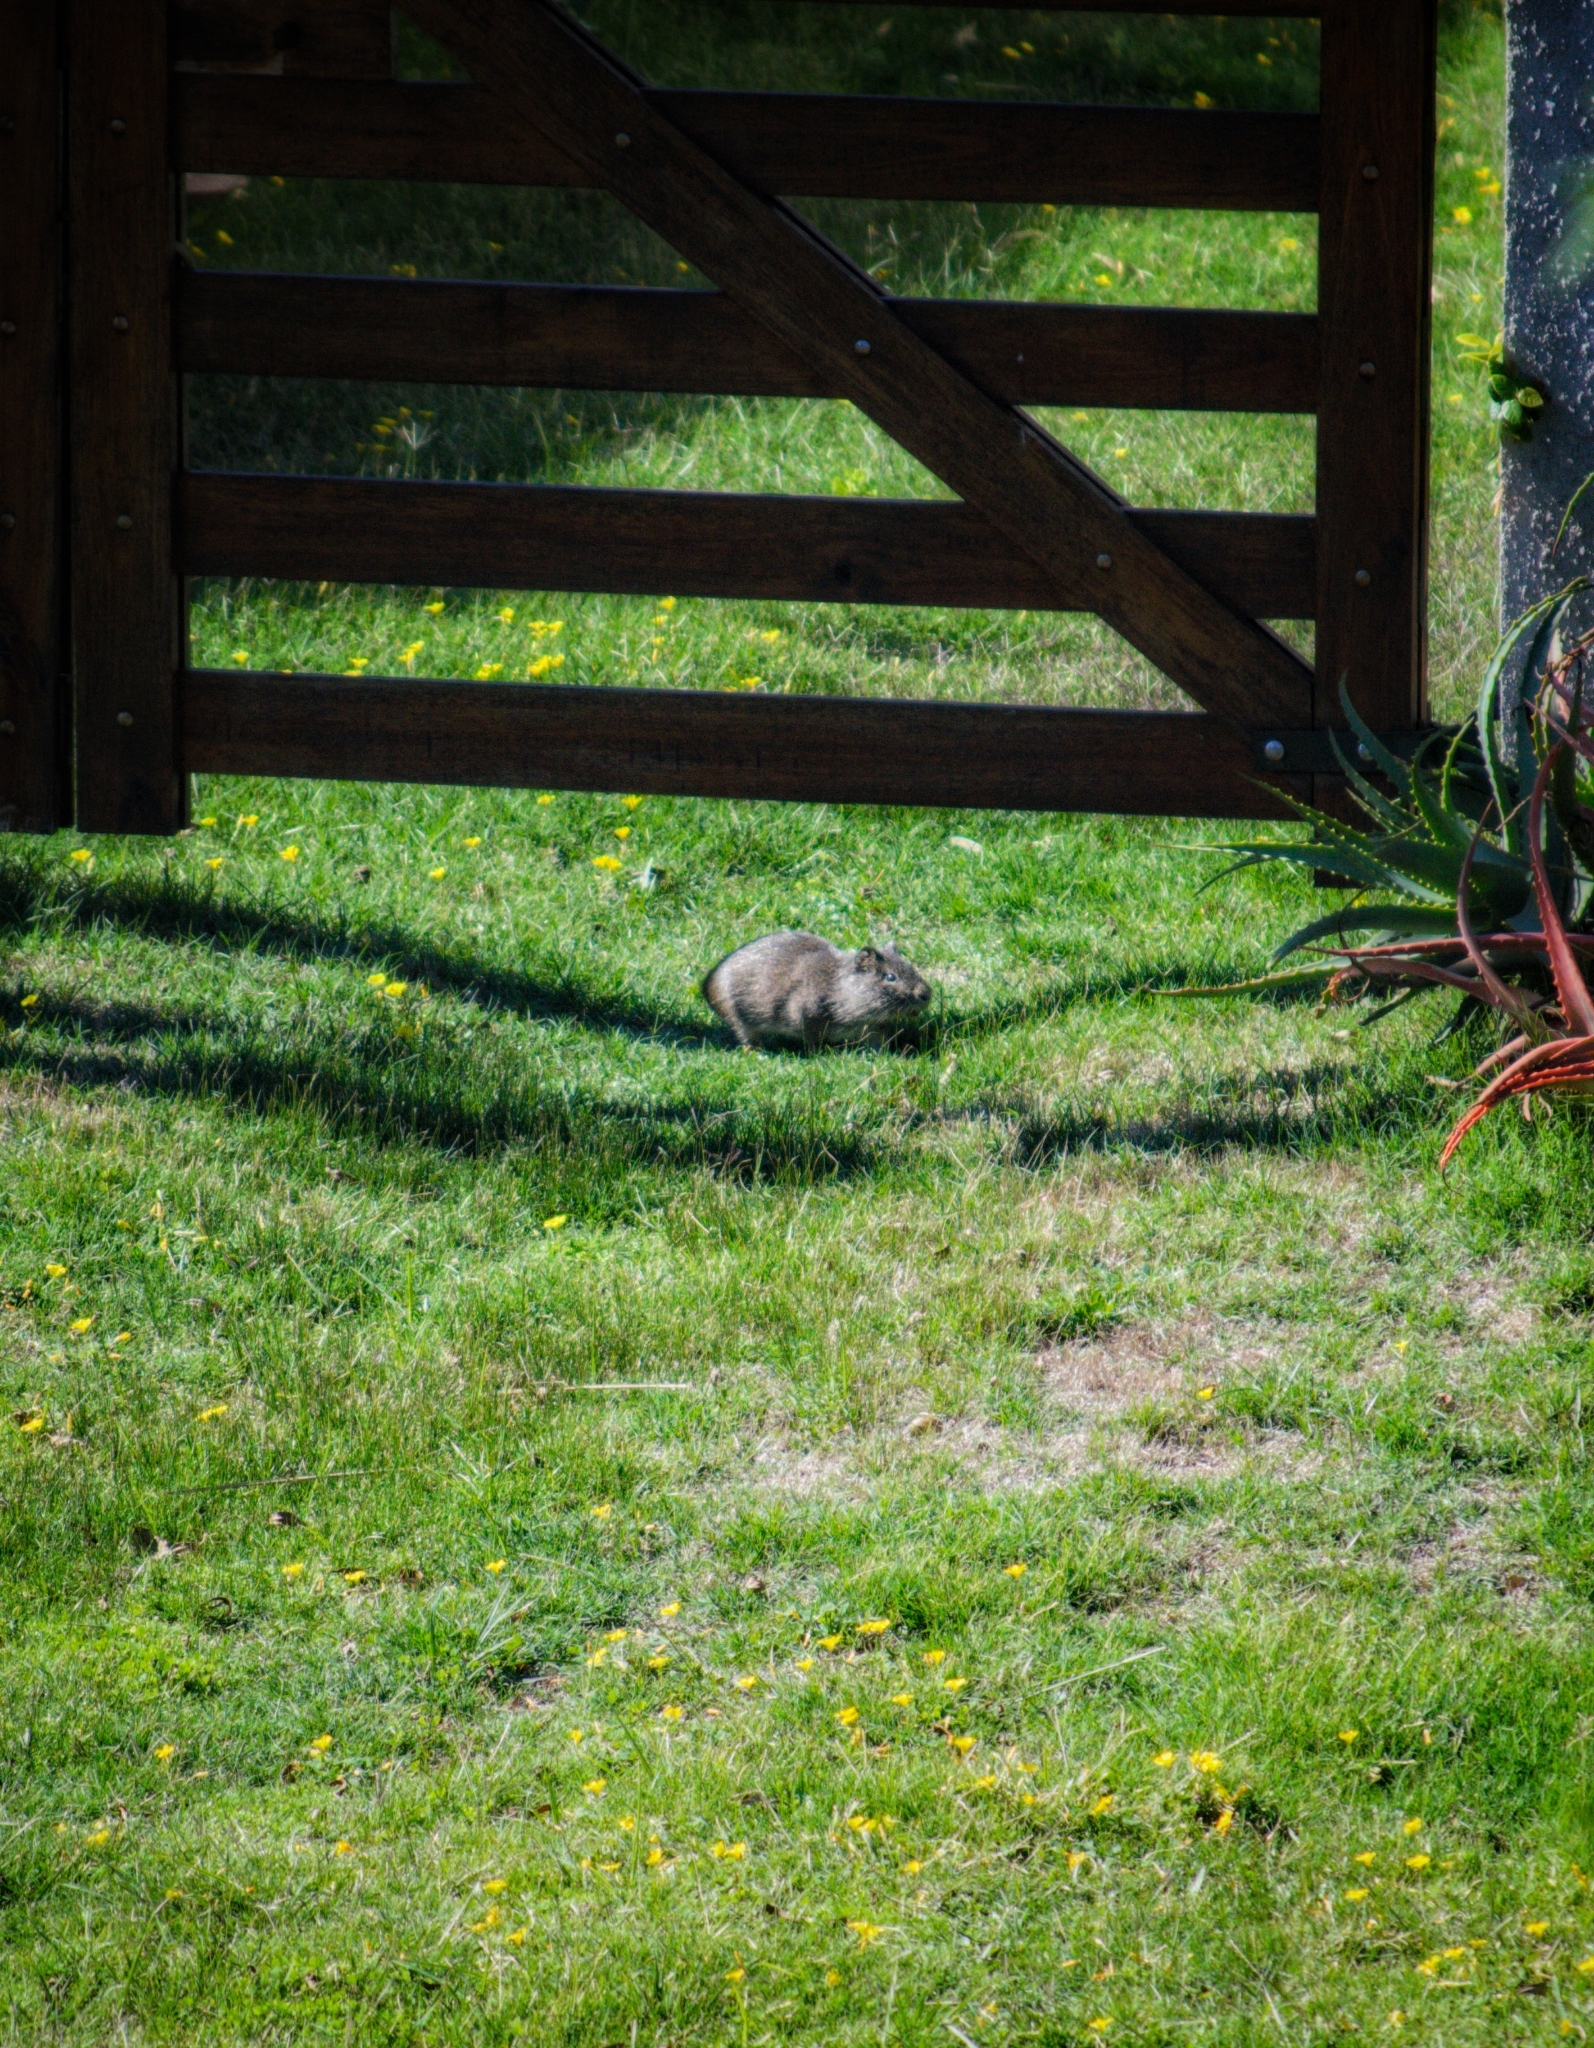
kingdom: Animalia
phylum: Chordata
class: Mammalia
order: Rodentia
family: Caviidae
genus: Cavia
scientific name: Cavia aperea
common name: Brazilian guinea pig
